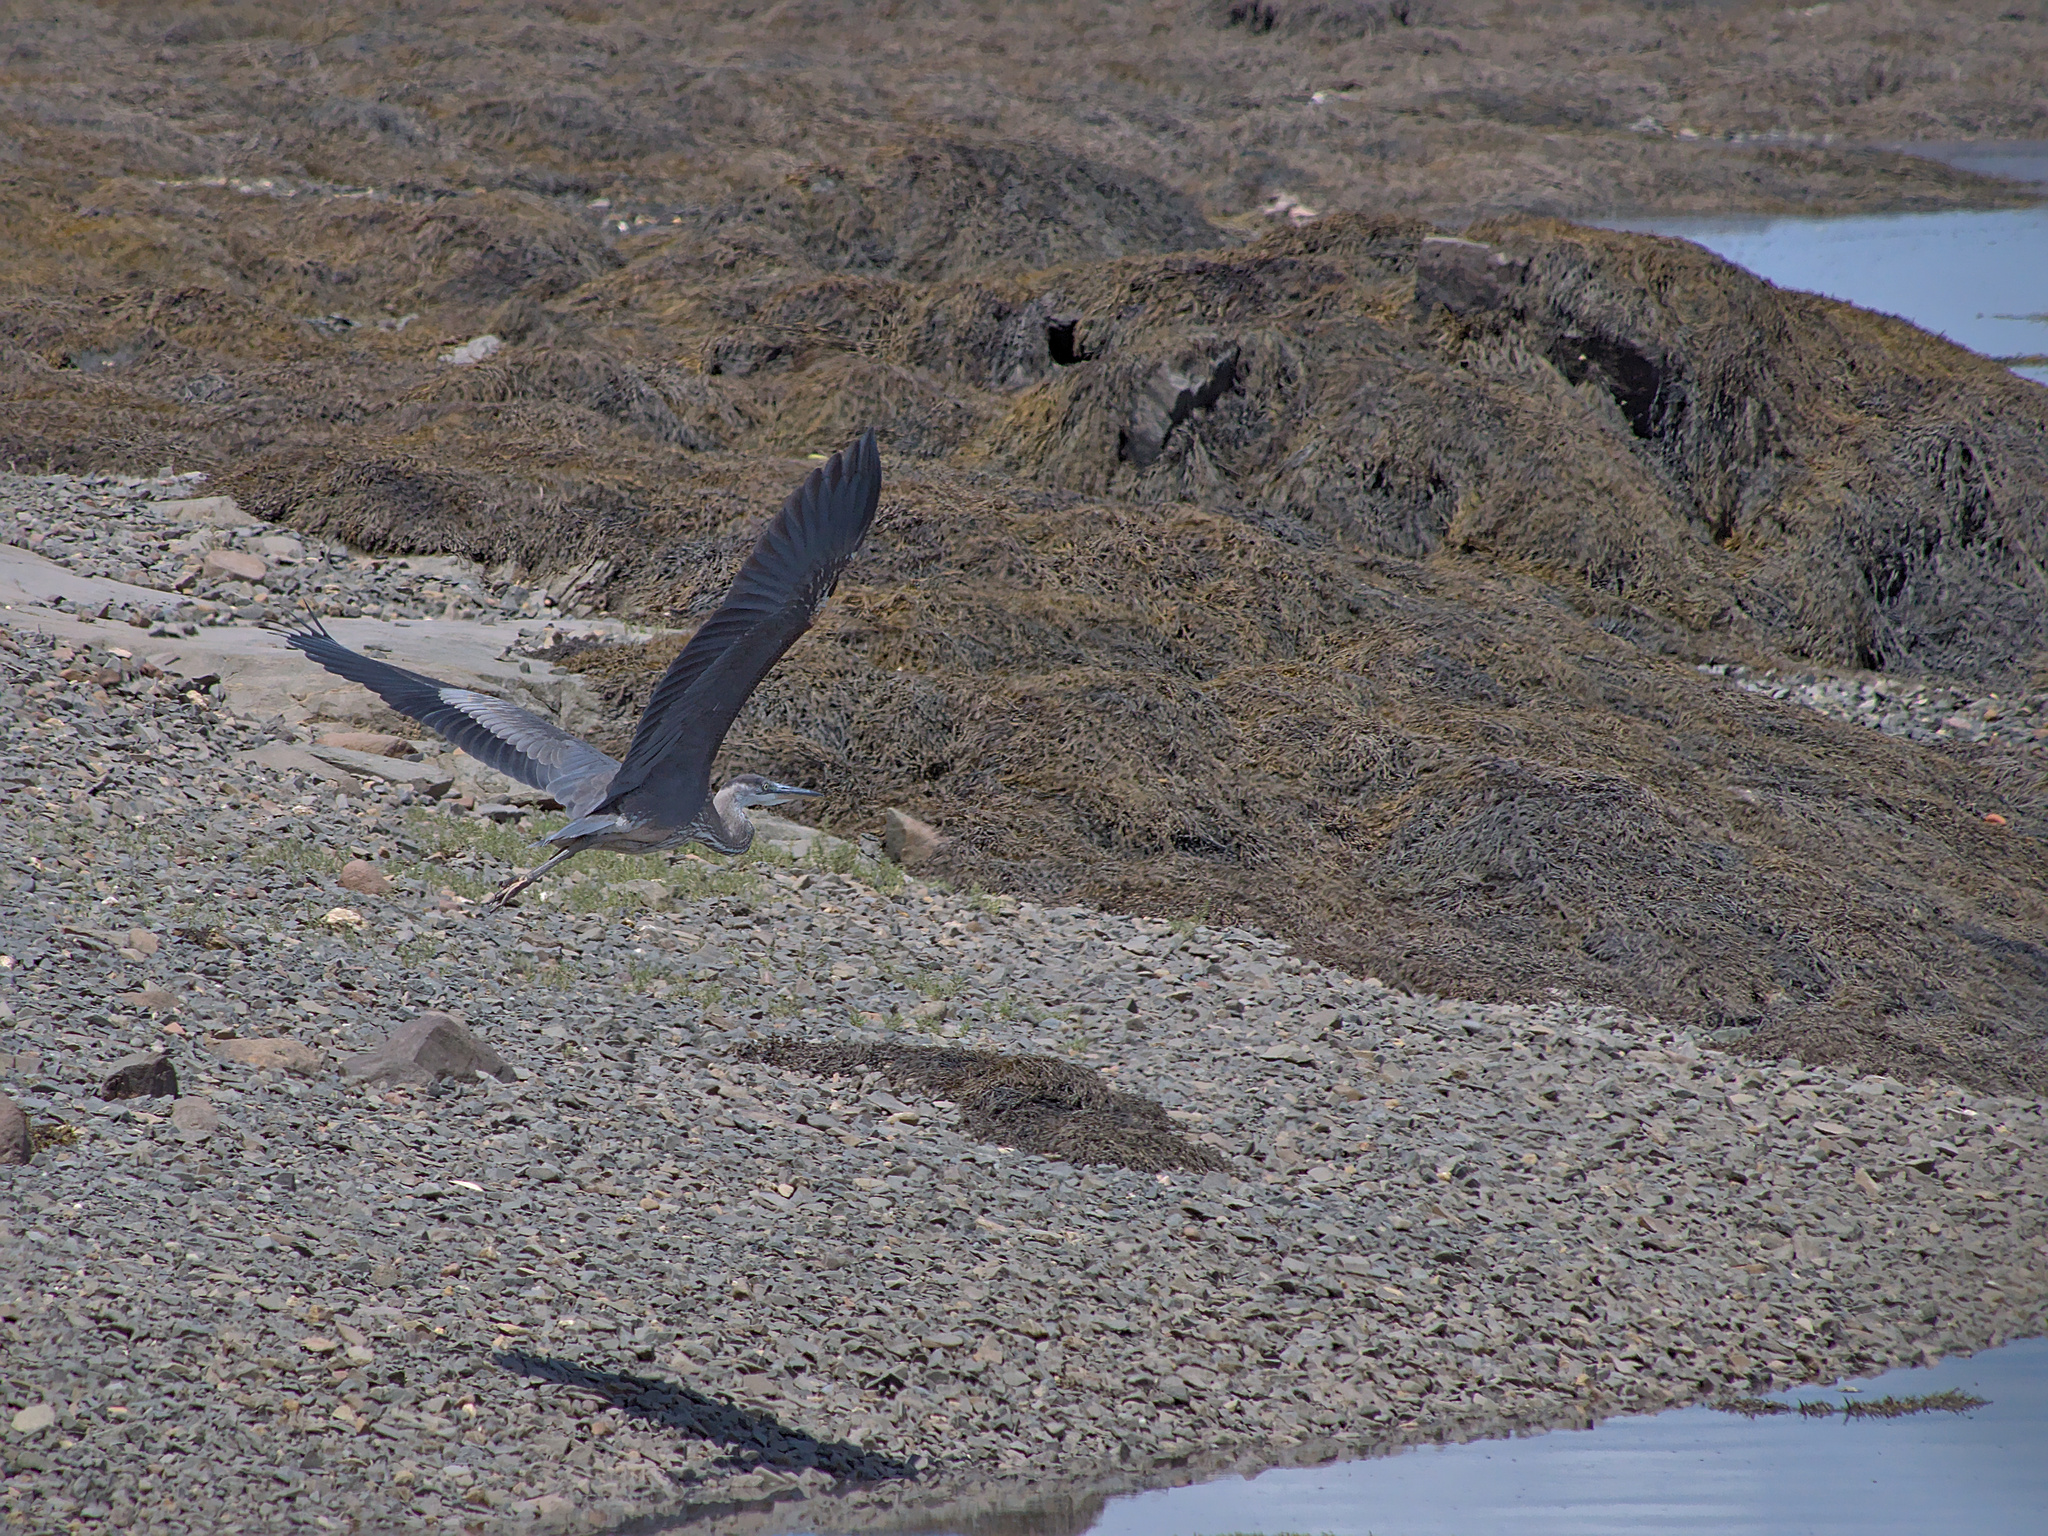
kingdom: Animalia
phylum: Chordata
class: Aves
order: Pelecaniformes
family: Ardeidae
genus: Ardea
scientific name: Ardea herodias
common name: Great blue heron
